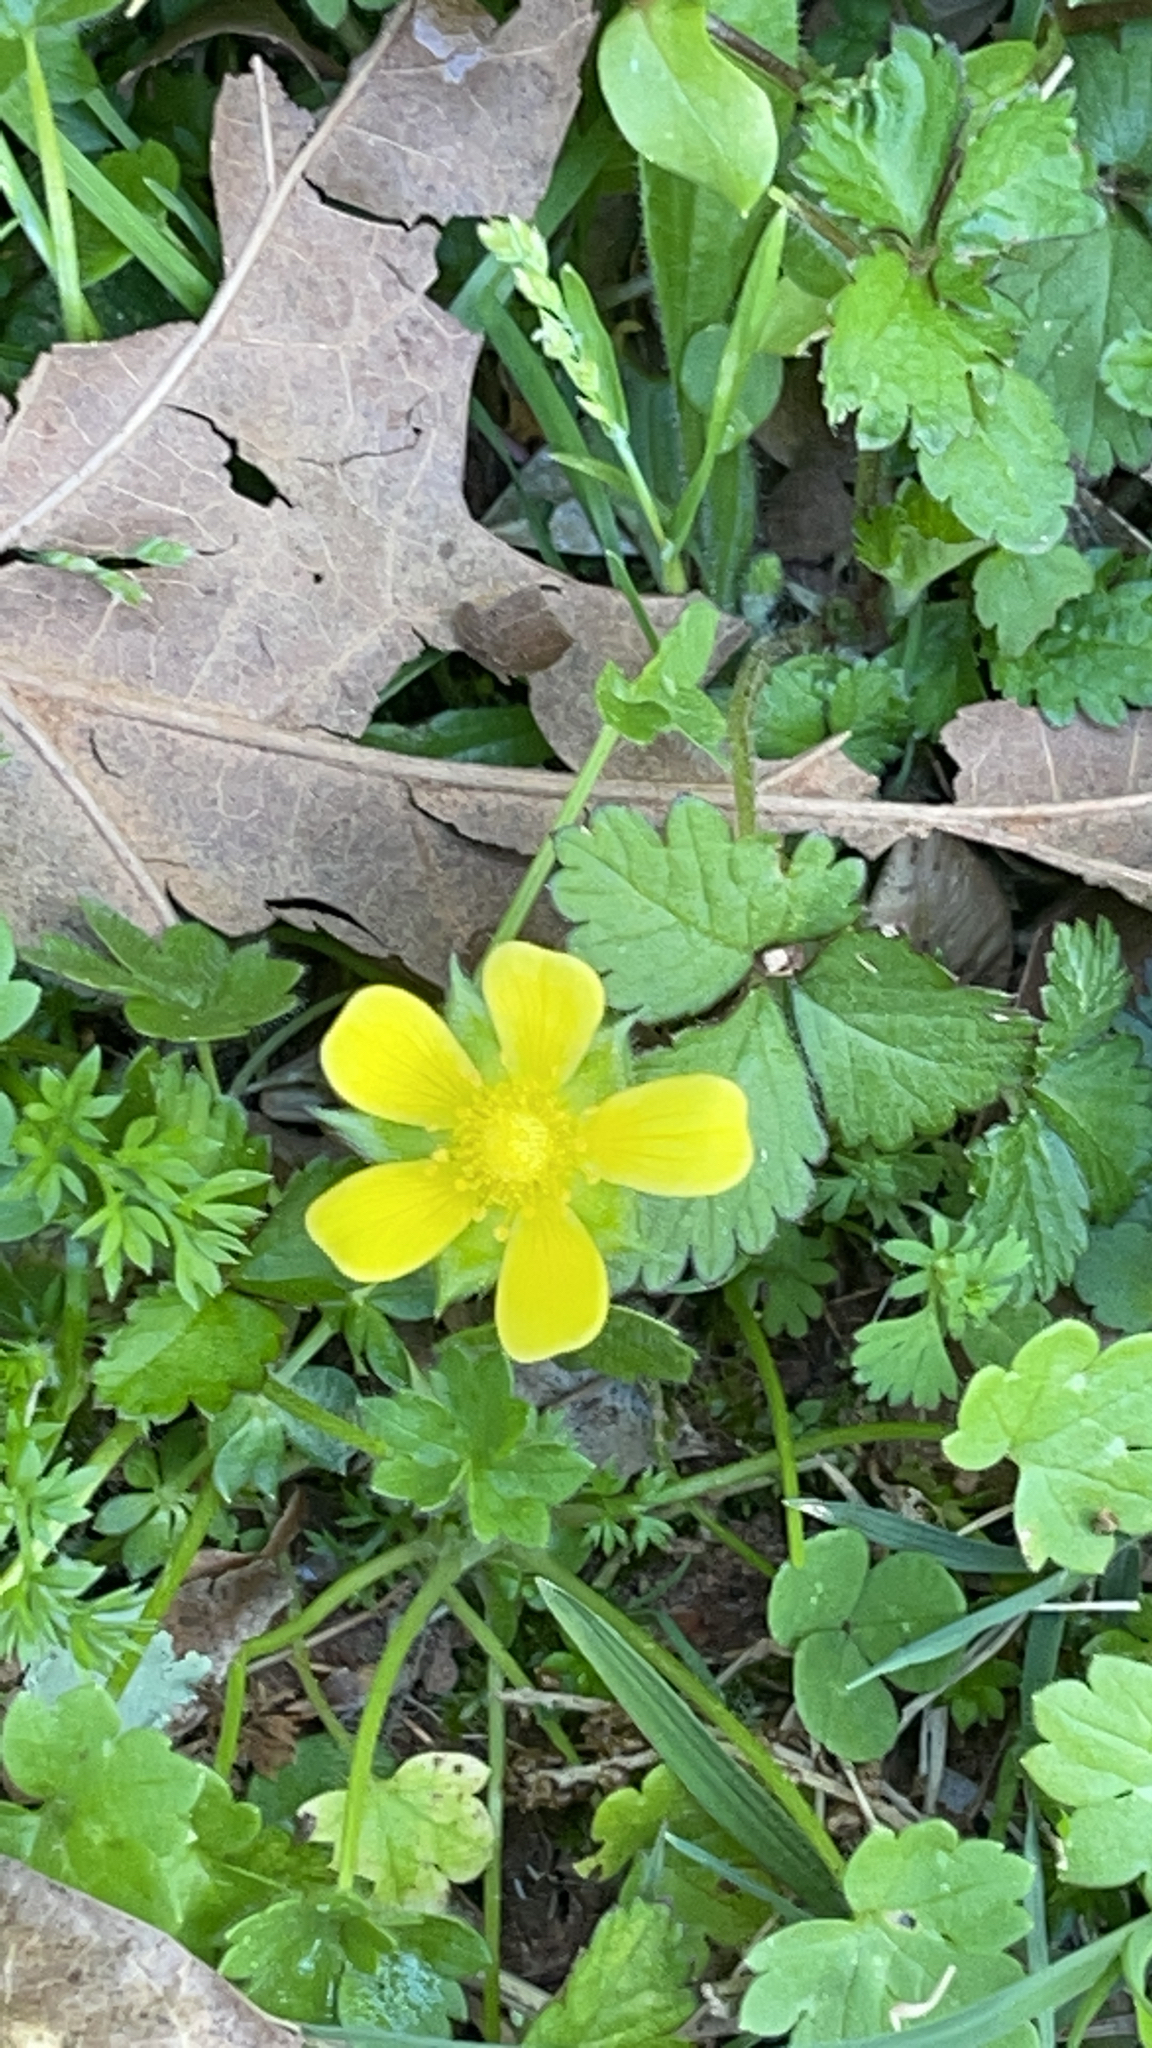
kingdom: Plantae
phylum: Tracheophyta
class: Magnoliopsida
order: Rosales
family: Rosaceae
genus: Potentilla
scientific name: Potentilla indica
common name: Yellow-flowered strawberry
